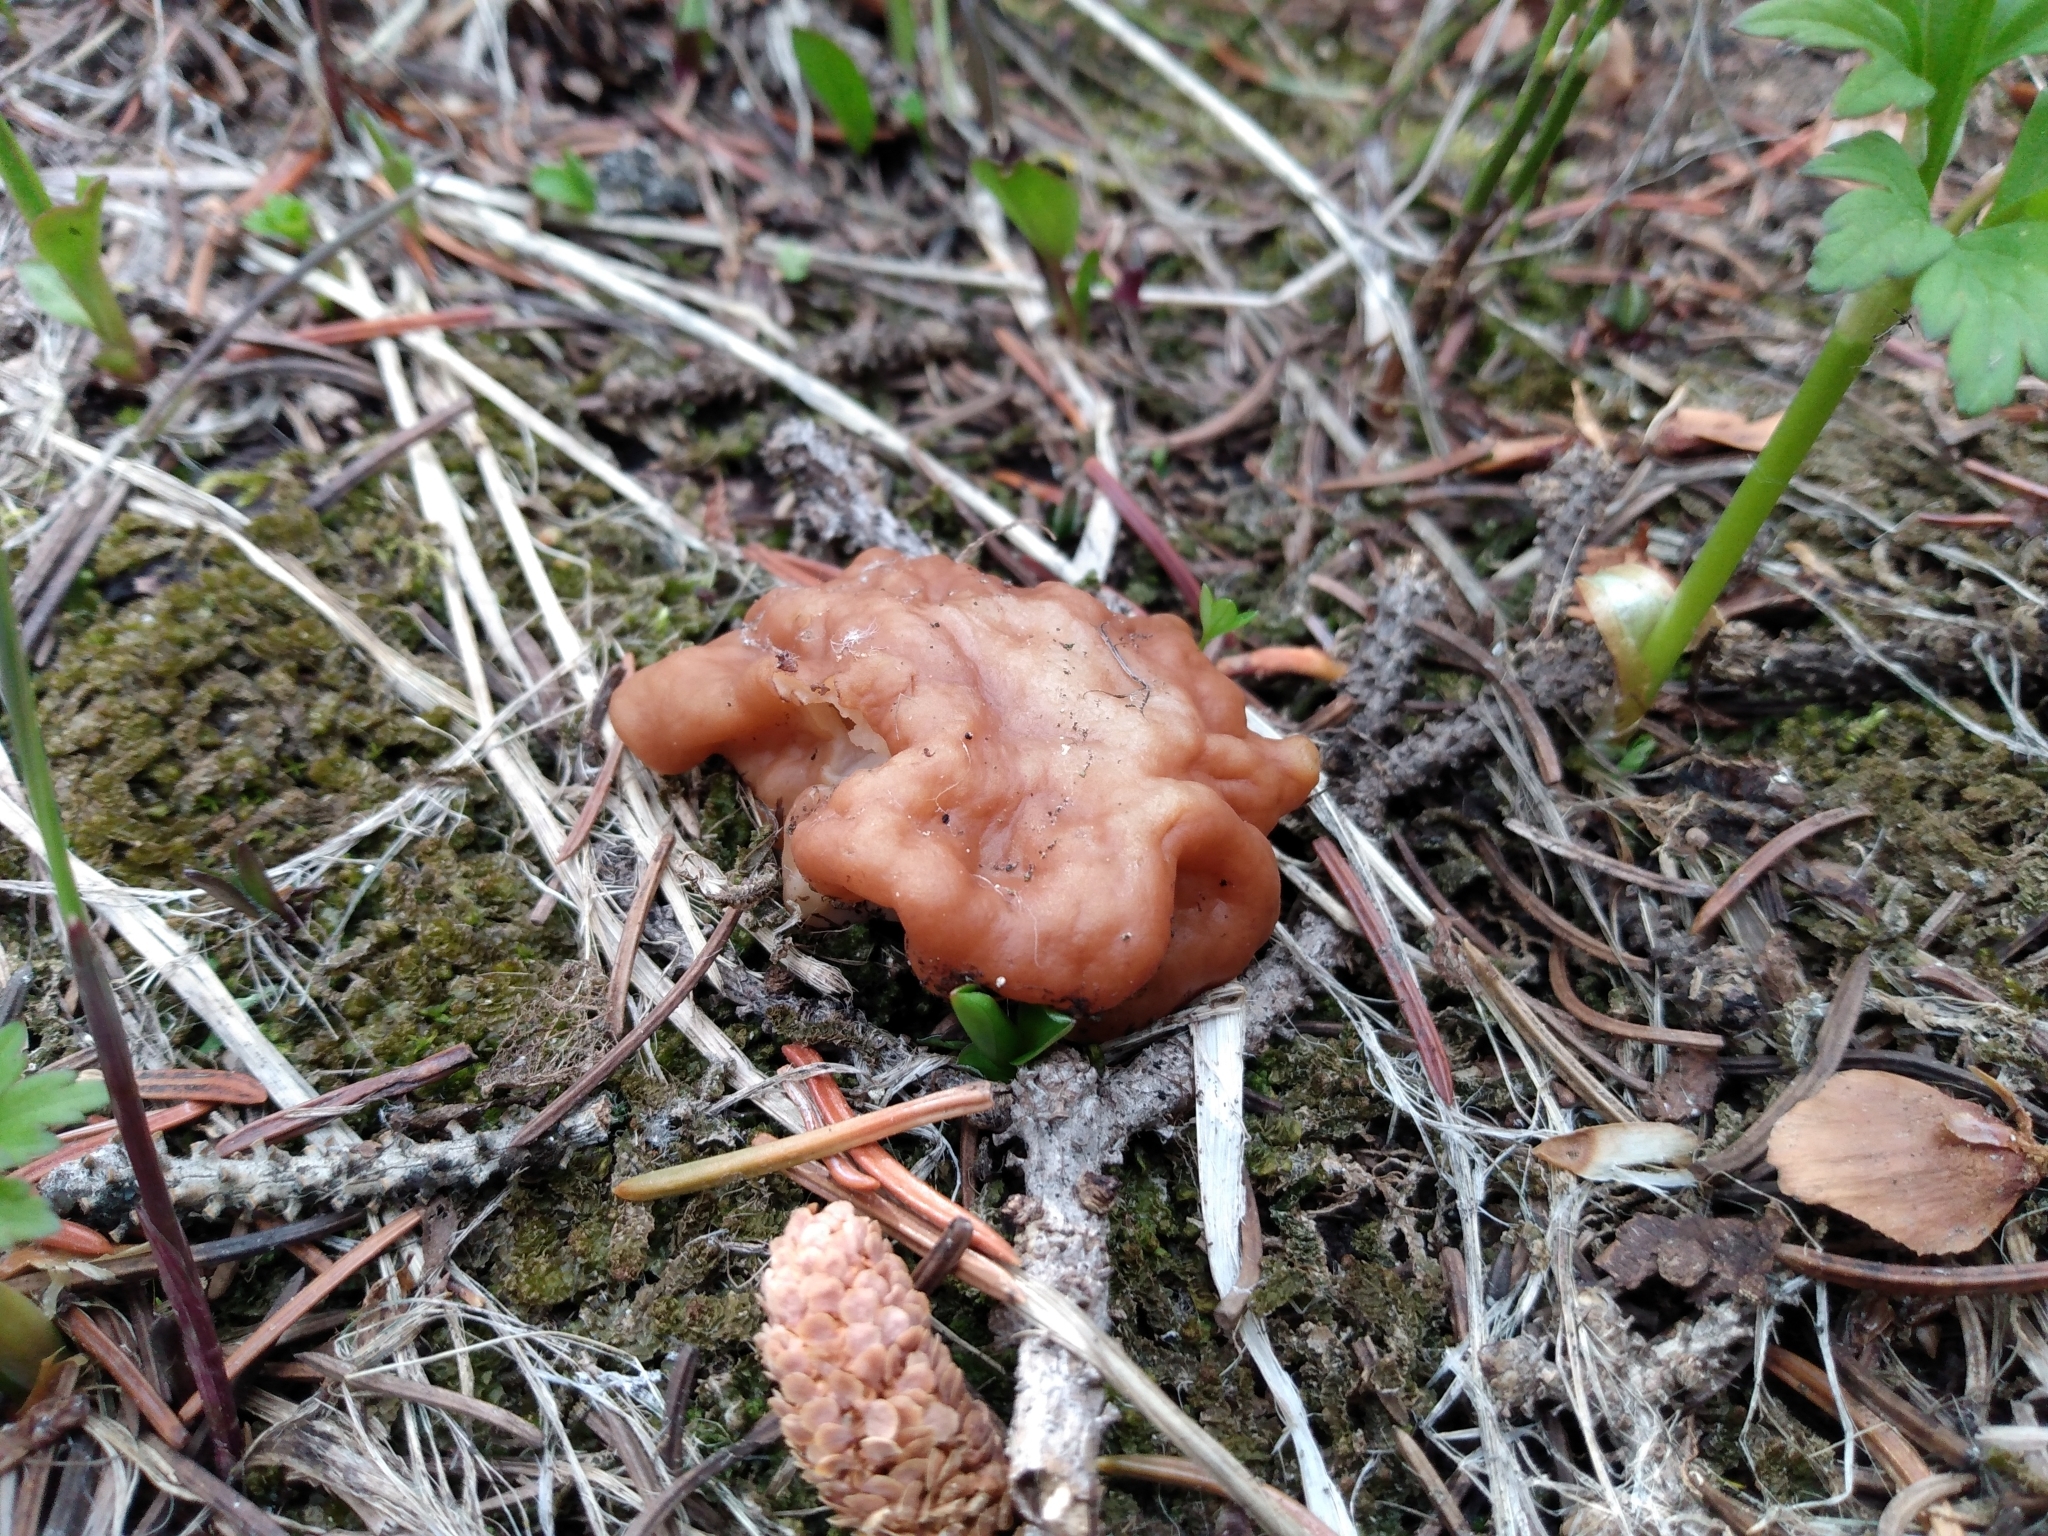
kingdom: Fungi
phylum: Ascomycota
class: Pezizomycetes
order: Pezizales
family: Discinaceae
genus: Discina
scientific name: Discina montana
